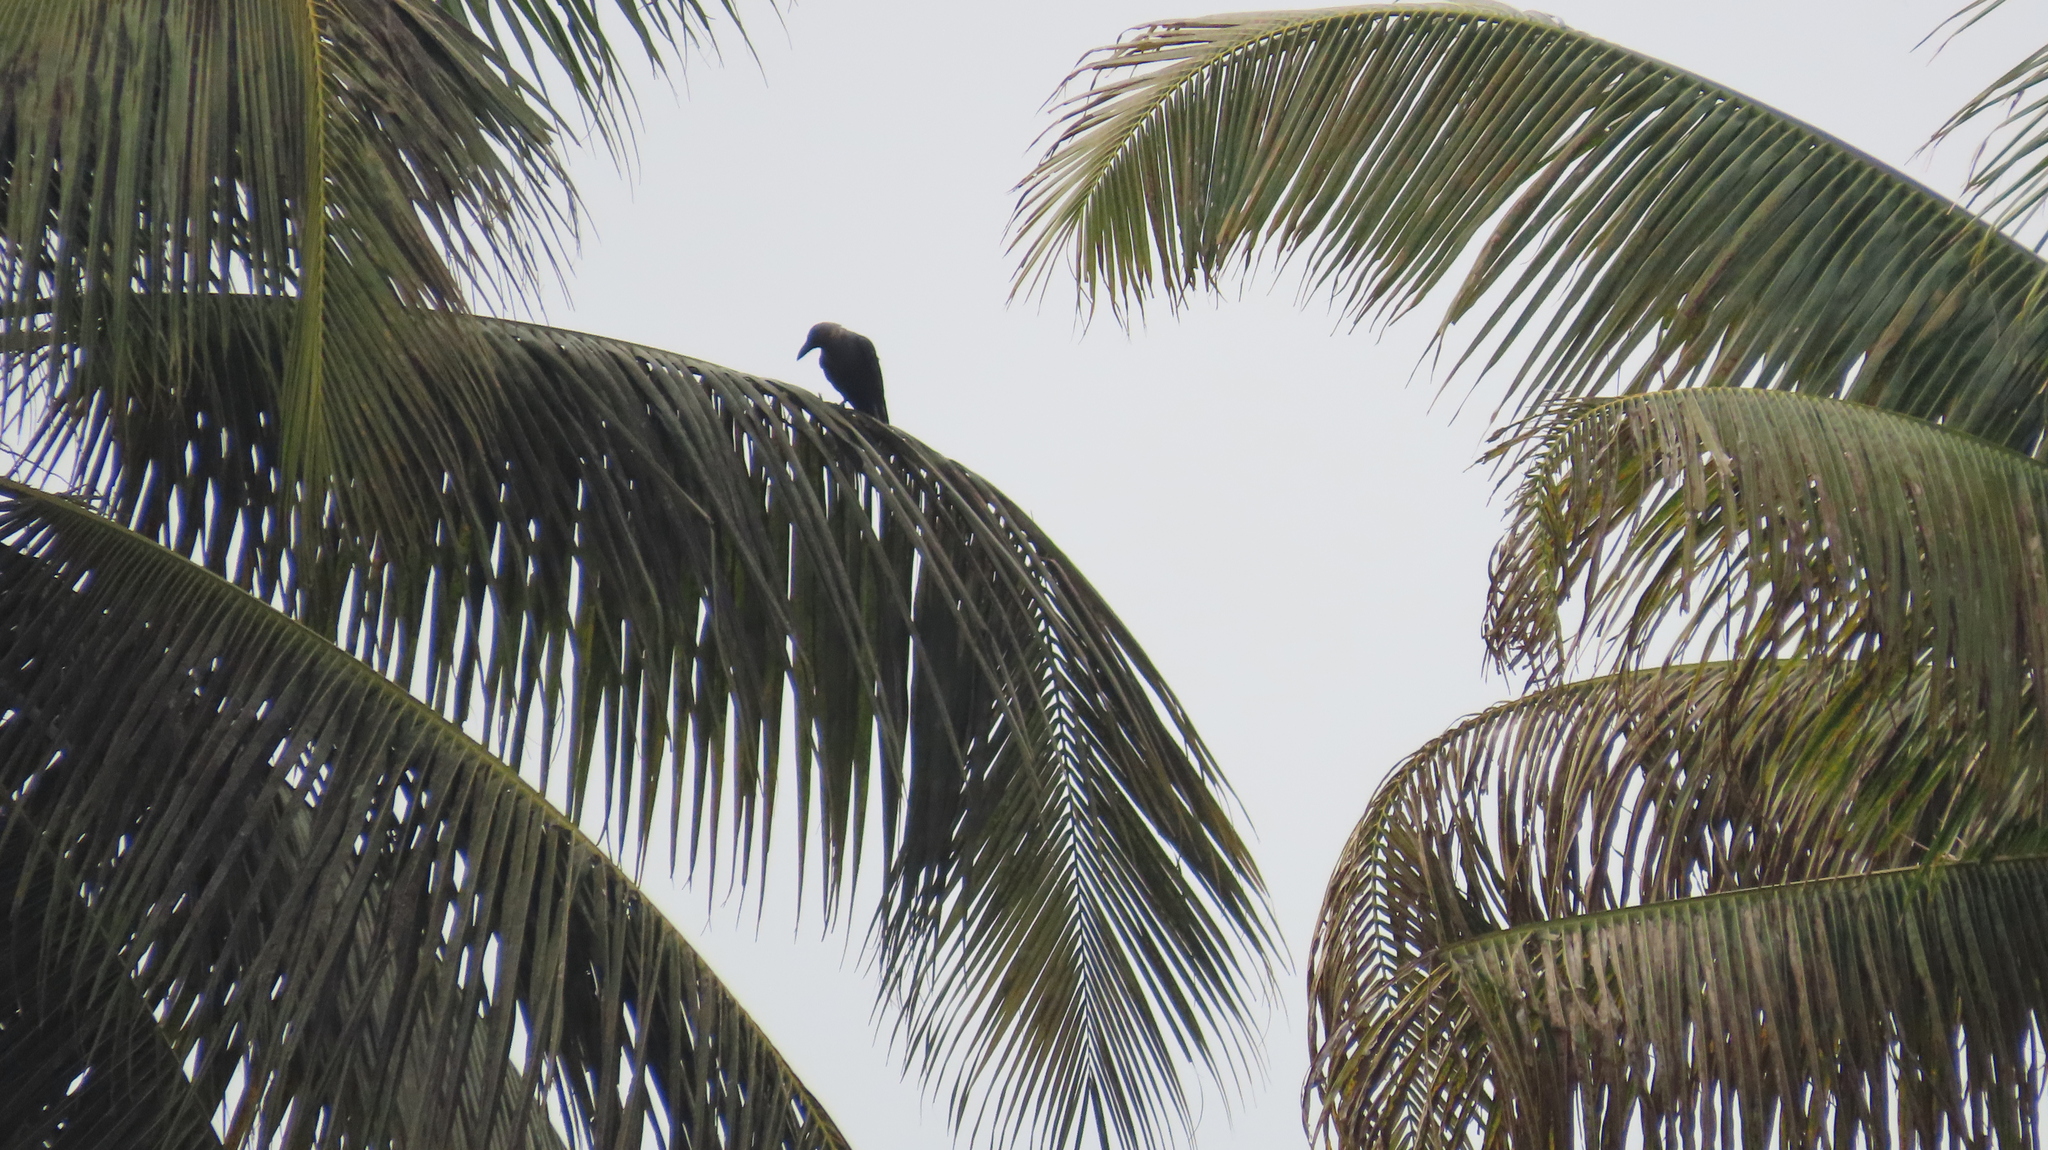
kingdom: Animalia
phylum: Chordata
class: Aves
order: Passeriformes
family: Corvidae
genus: Corvus
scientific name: Corvus splendens
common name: House crow
